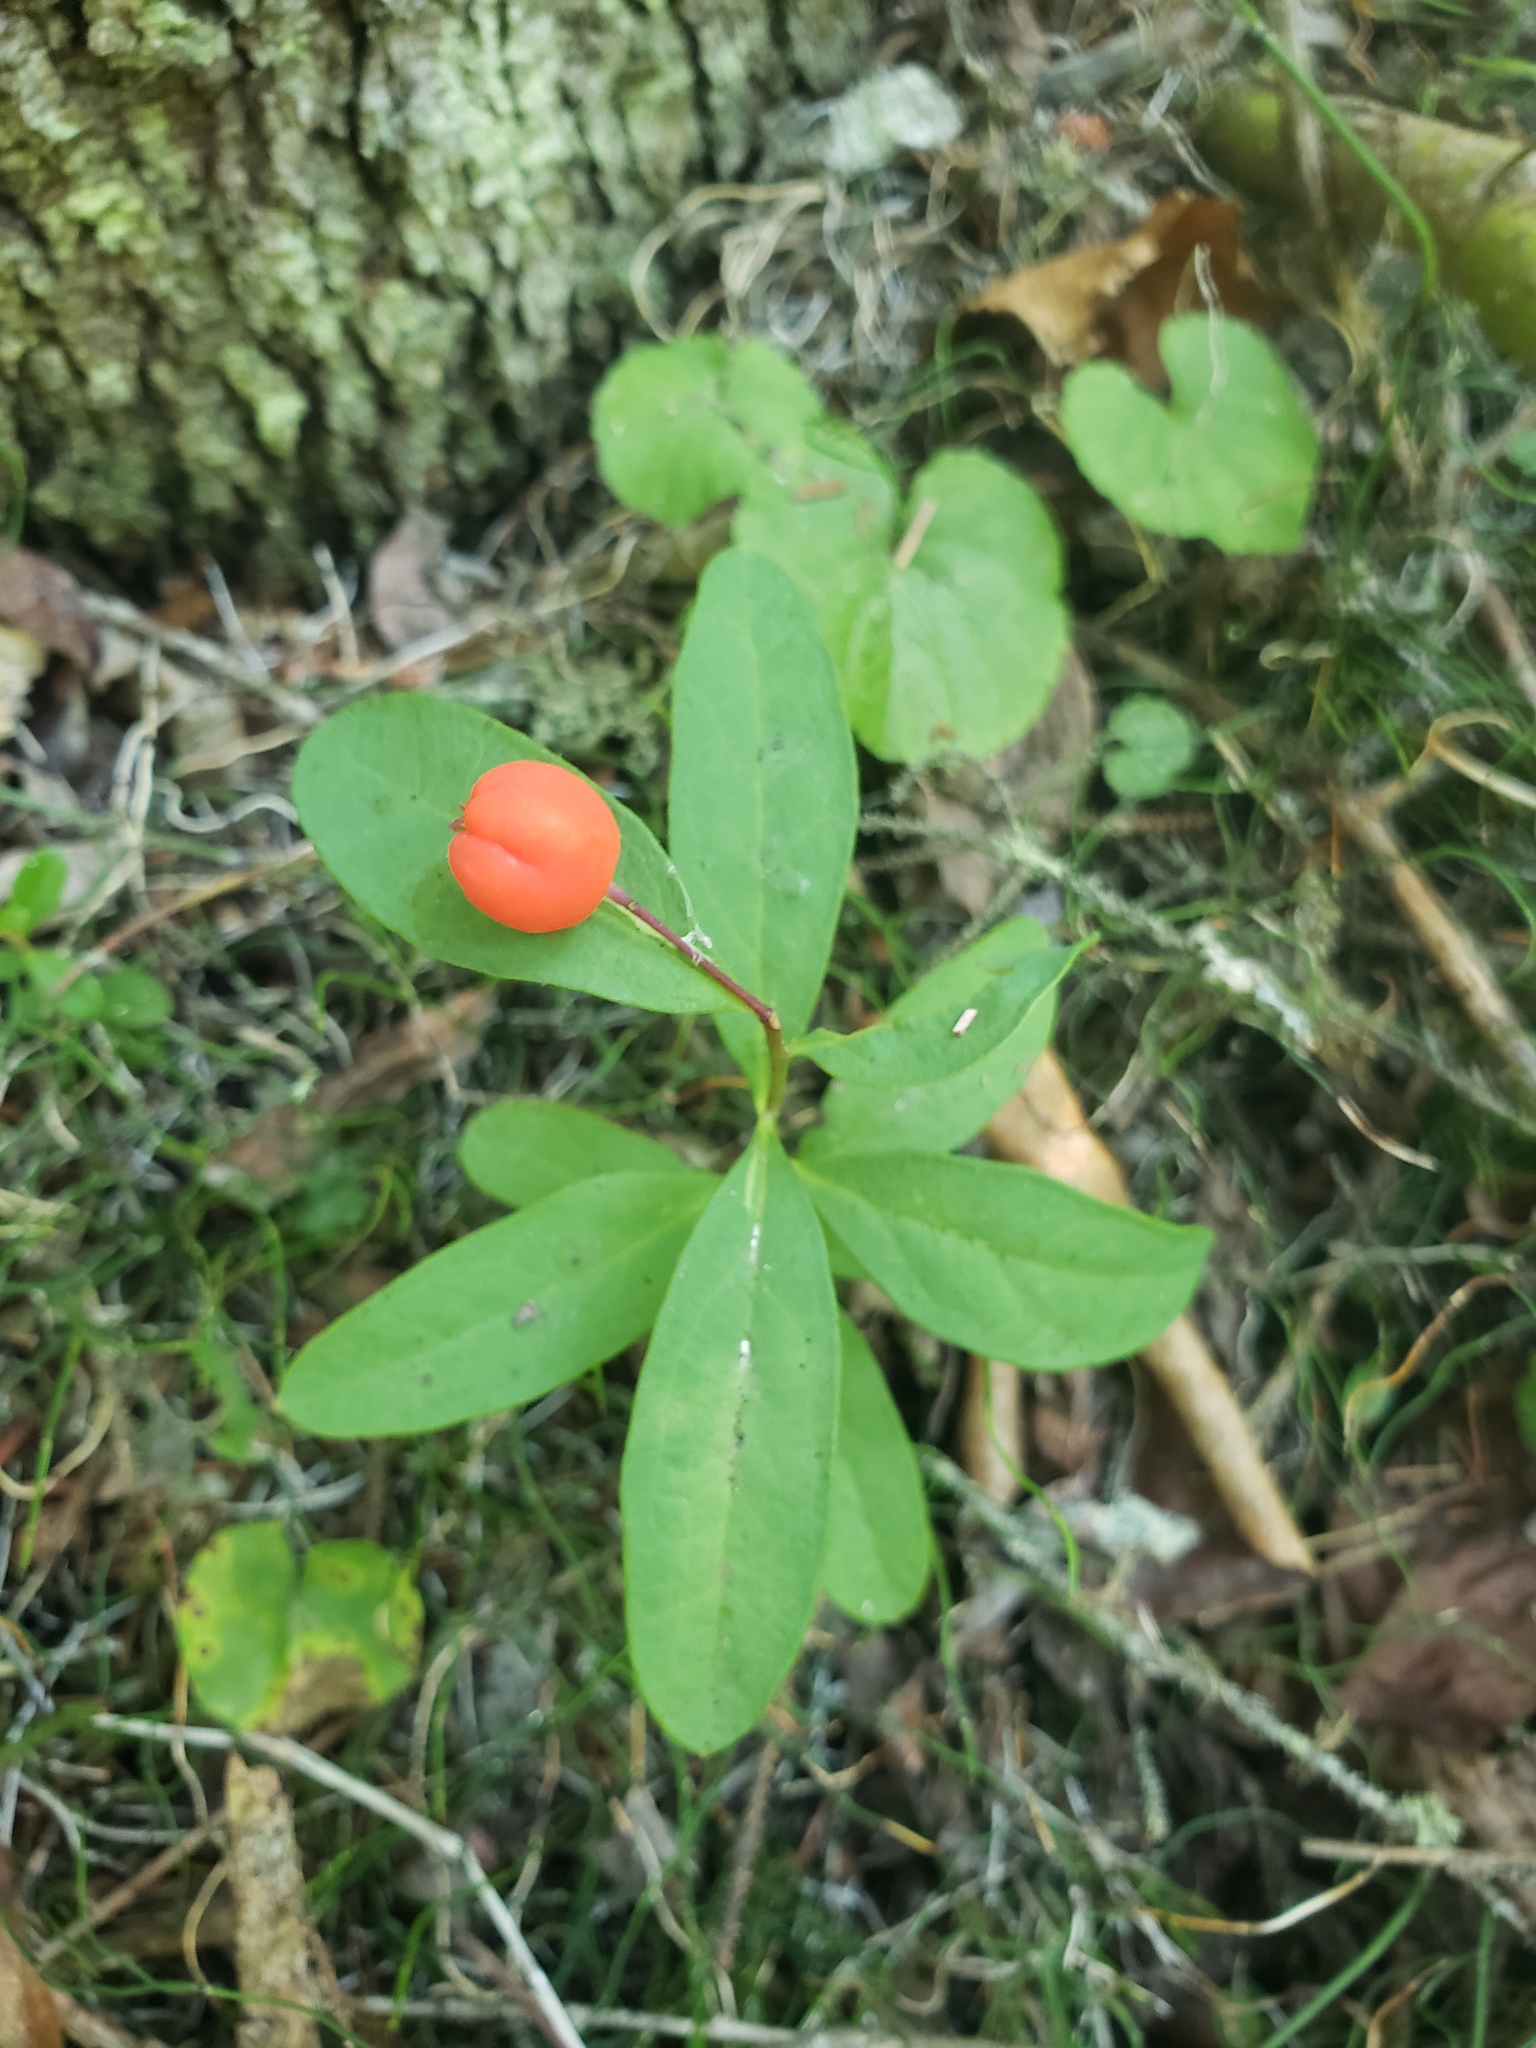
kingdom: Plantae
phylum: Tracheophyta
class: Magnoliopsida
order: Santalales
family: Comandraceae
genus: Geocaulon
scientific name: Geocaulon lividum
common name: Earthberry
